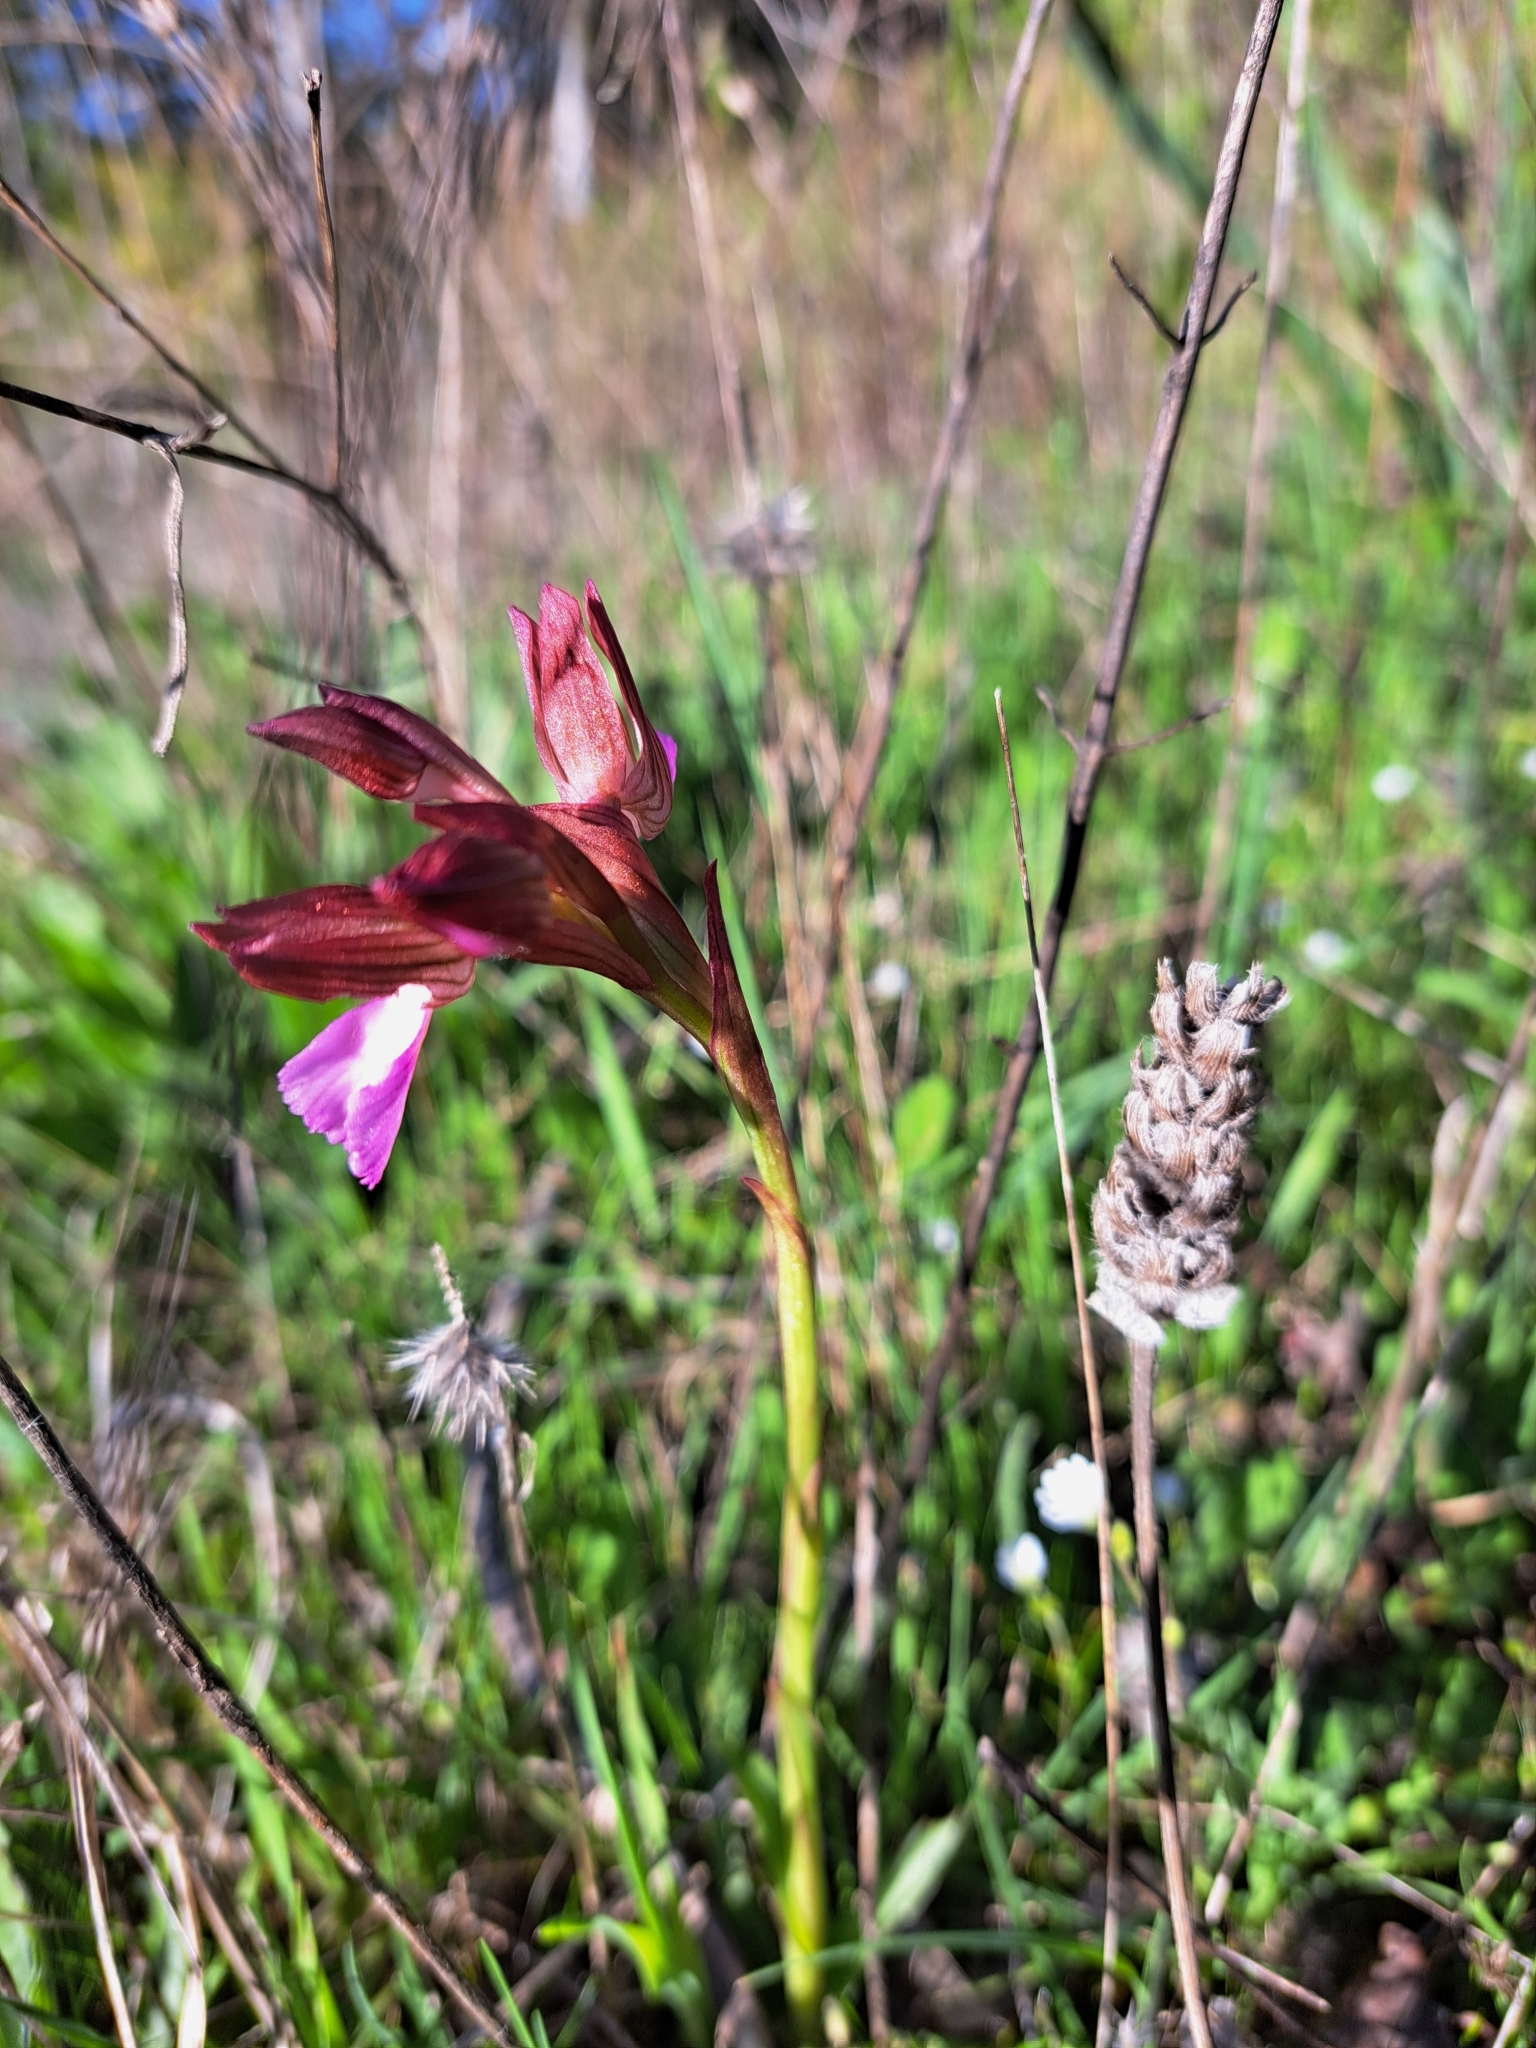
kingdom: Plantae
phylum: Tracheophyta
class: Liliopsida
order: Asparagales
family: Orchidaceae
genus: Anacamptis
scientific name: Anacamptis papilionacea
